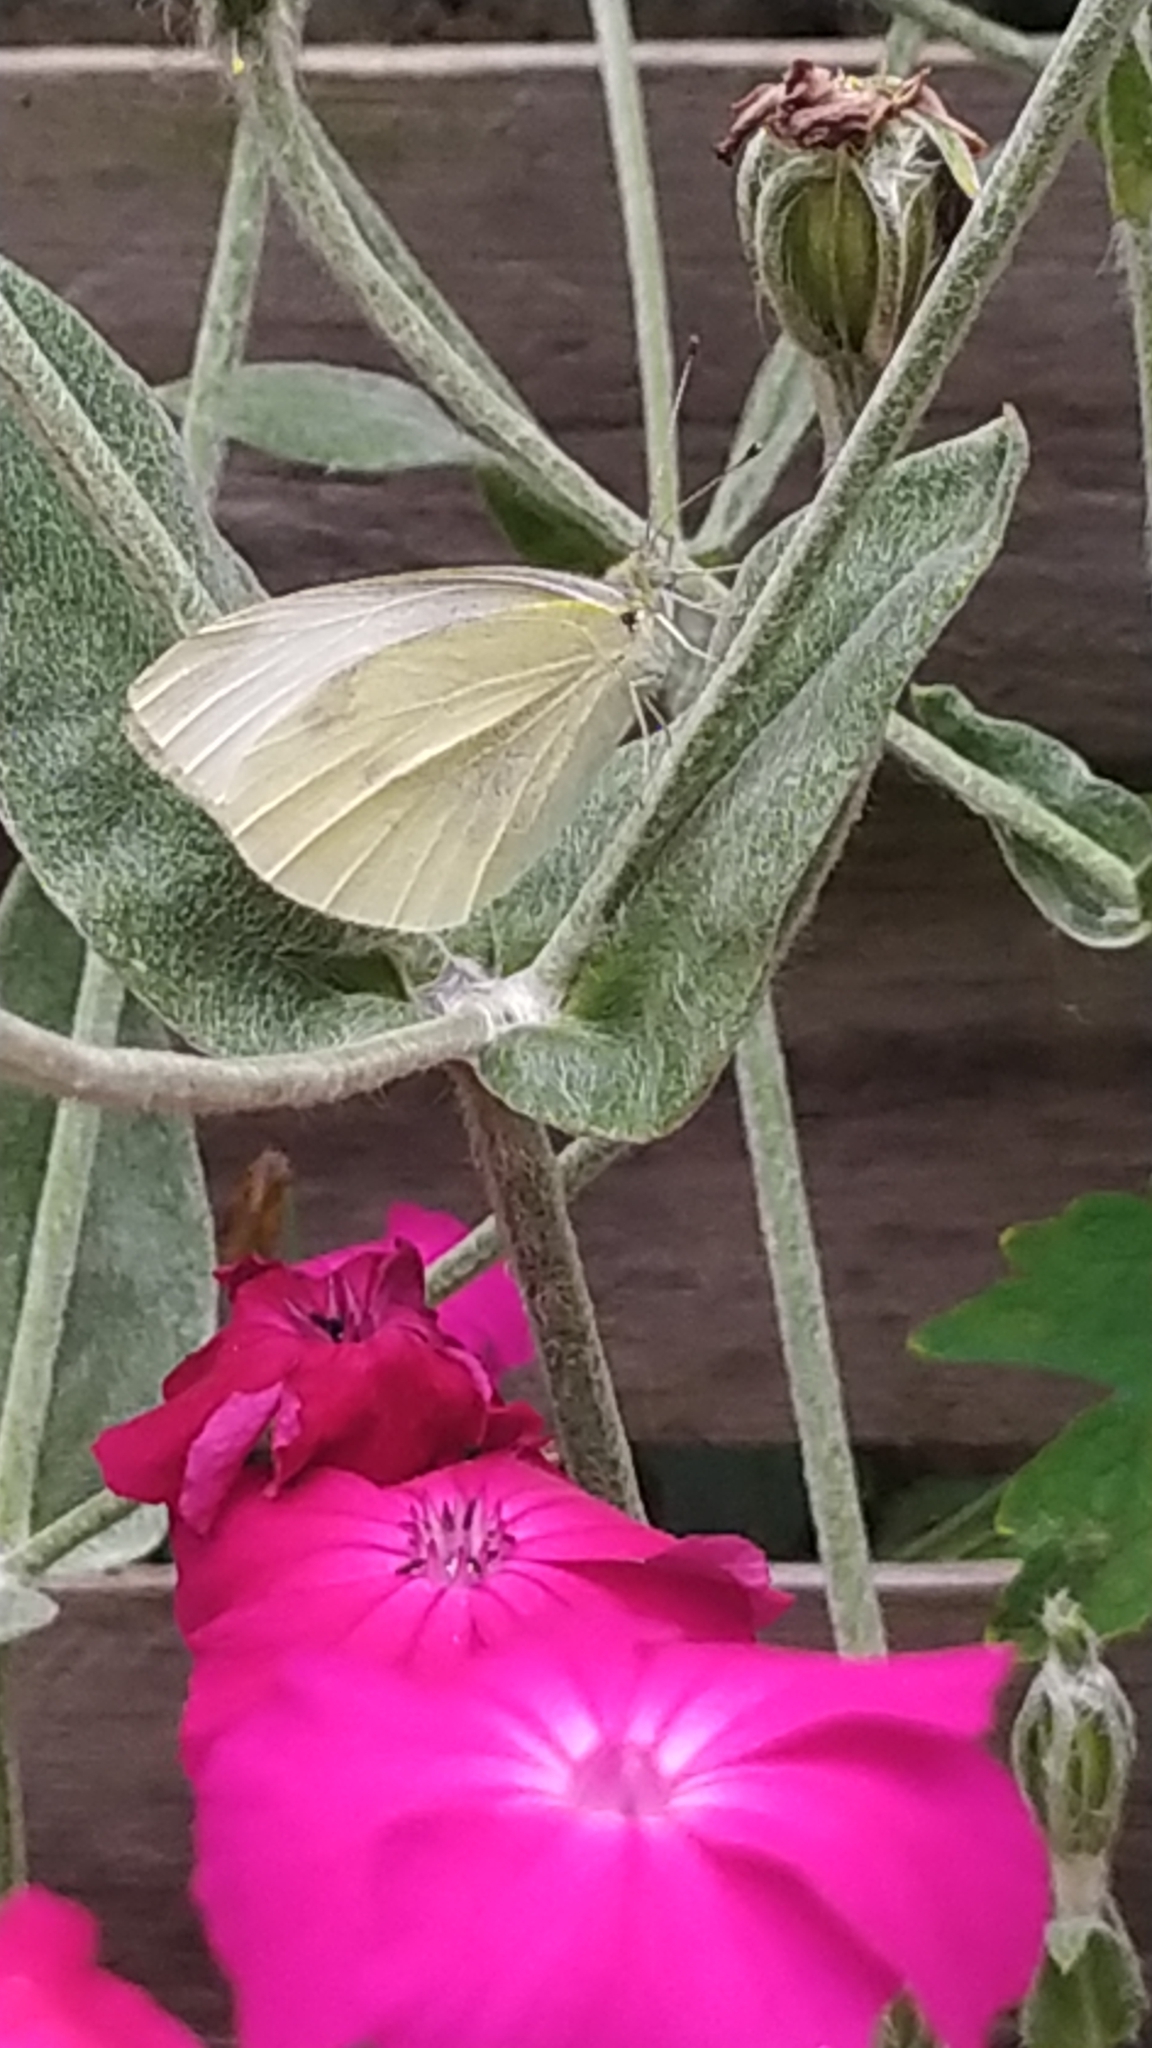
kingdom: Animalia
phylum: Arthropoda
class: Insecta
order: Lepidoptera
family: Pieridae
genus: Pieris
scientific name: Pieris rapae
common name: Small white
